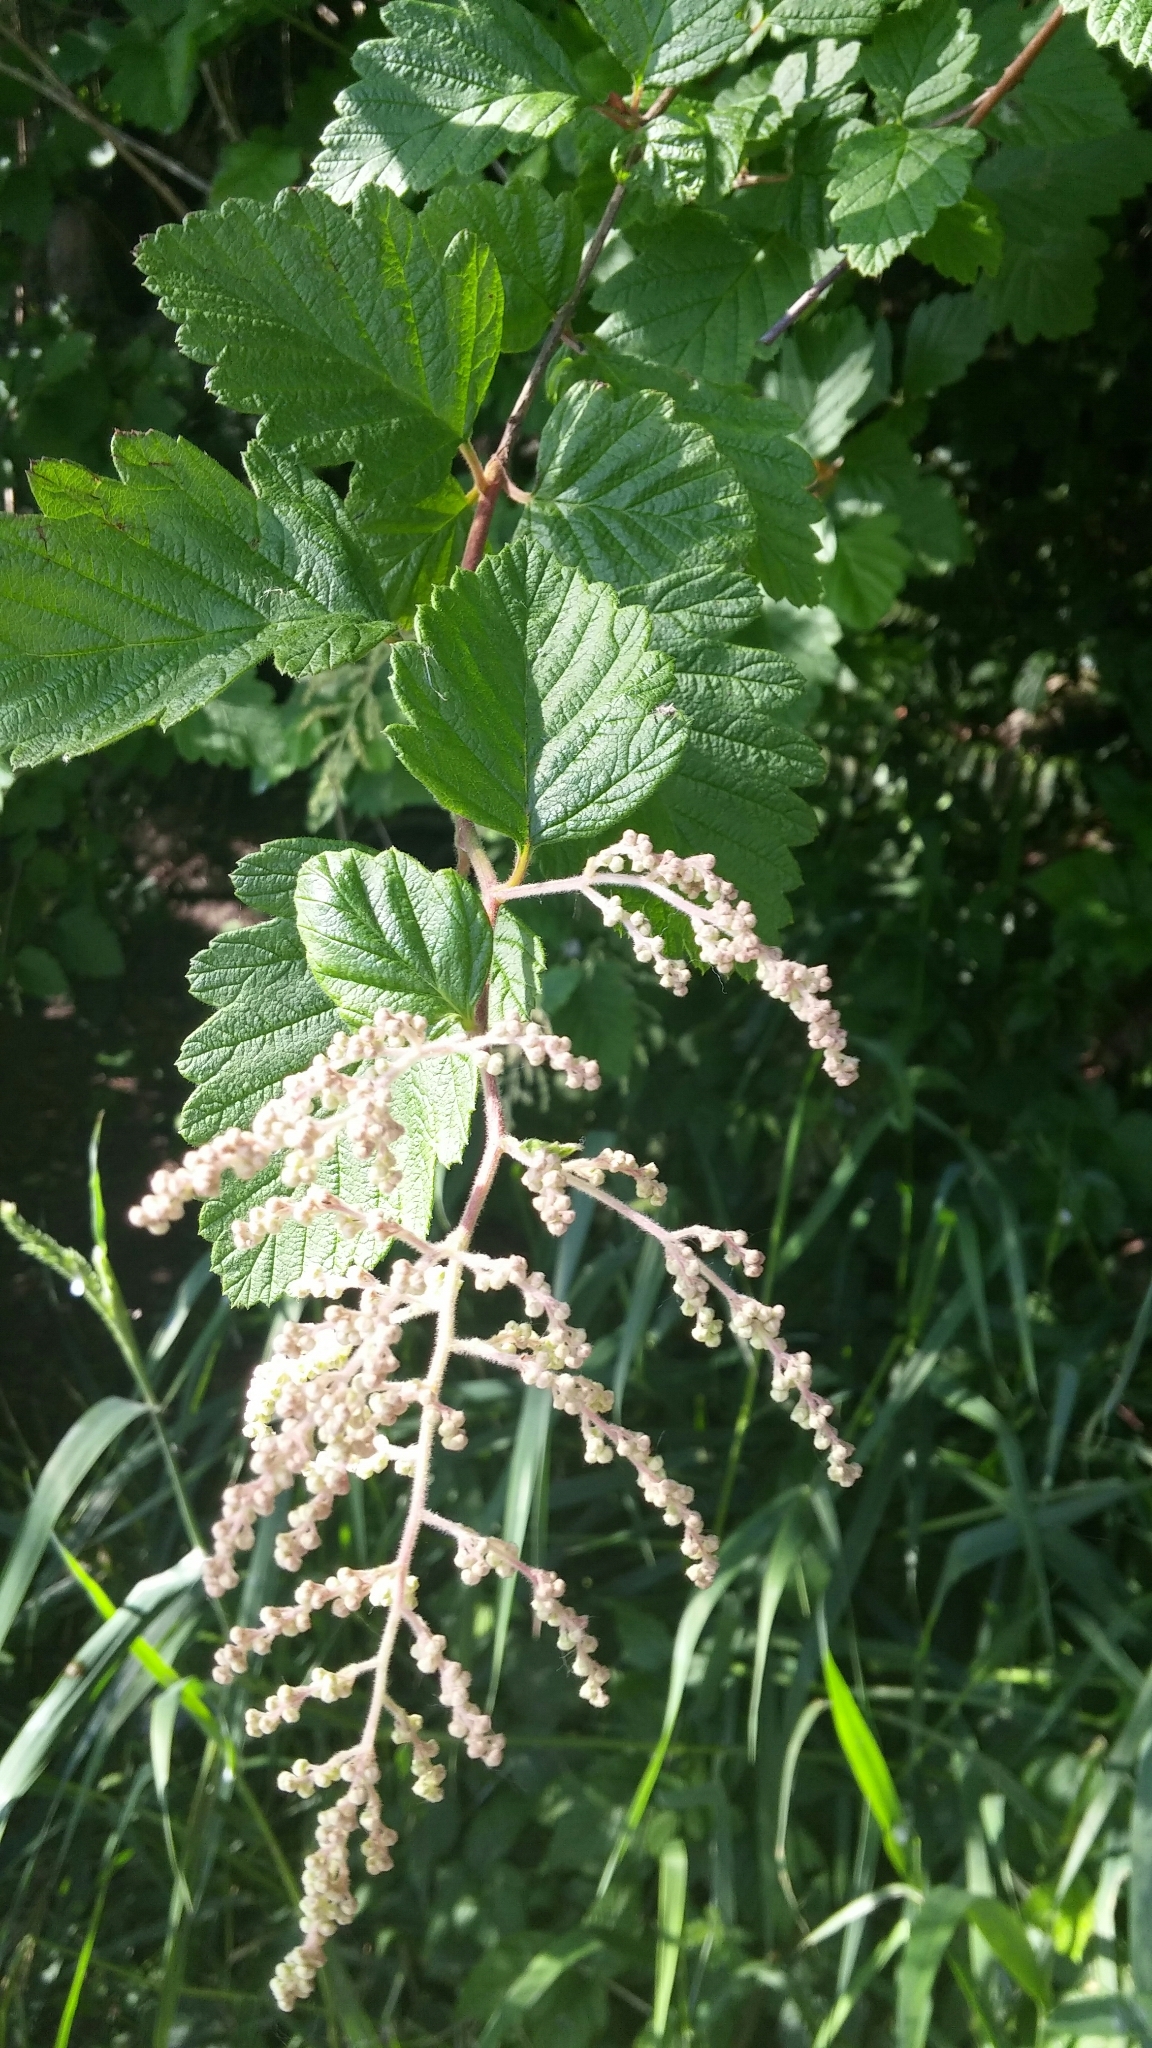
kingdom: Plantae
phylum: Tracheophyta
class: Magnoliopsida
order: Rosales
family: Rosaceae
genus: Holodiscus
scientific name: Holodiscus discolor
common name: Oceanspray
